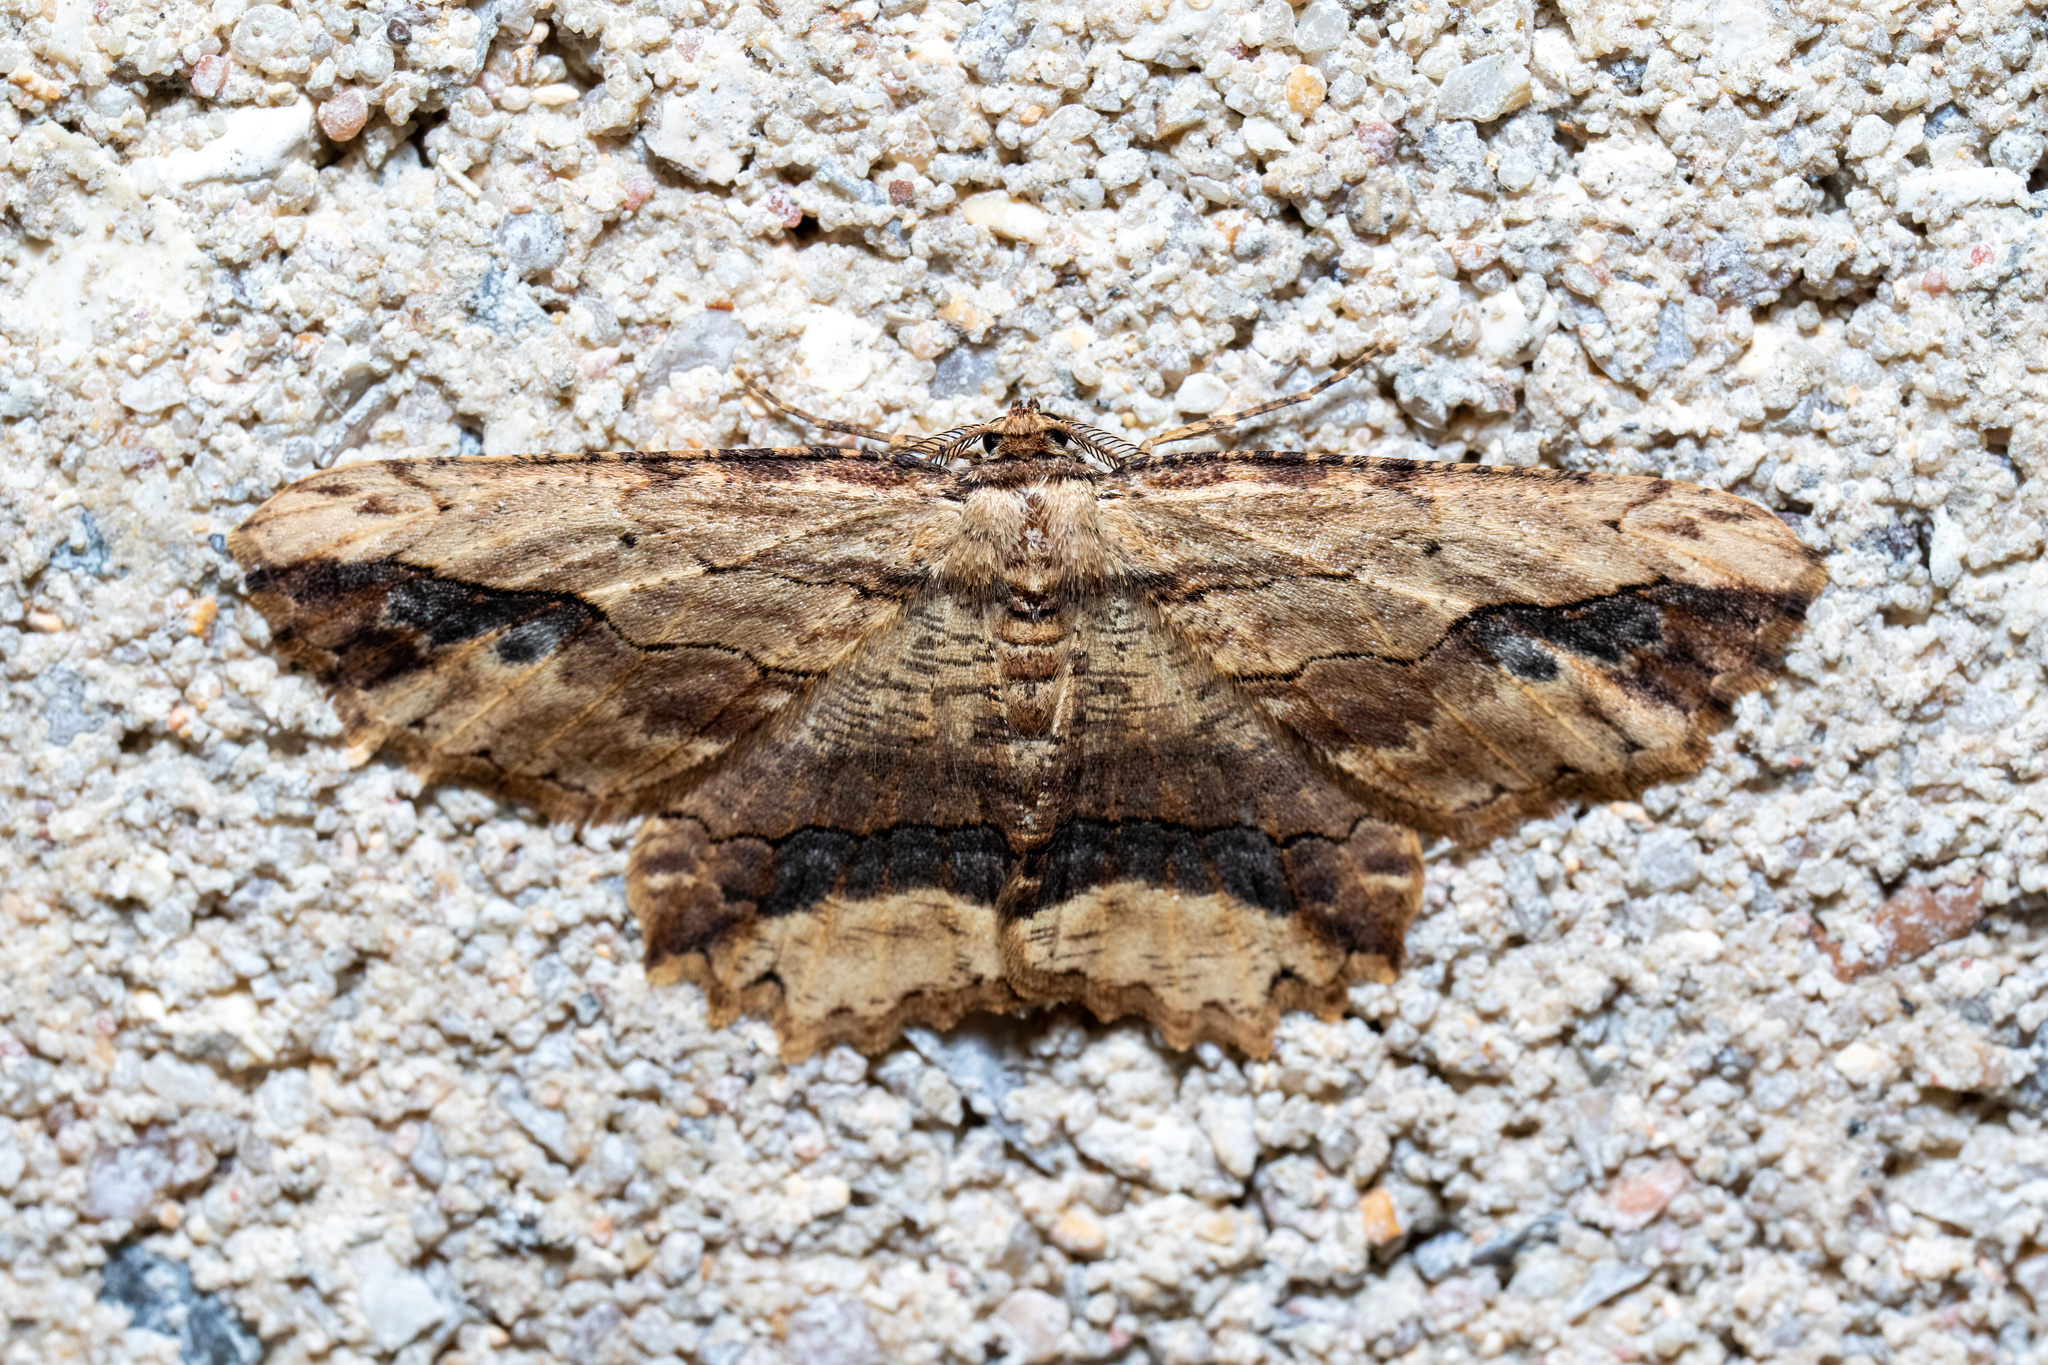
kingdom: Animalia
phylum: Arthropoda
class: Insecta
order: Lepidoptera
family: Geometridae
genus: Menophra
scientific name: Menophra abruptaria
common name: Waved umber
